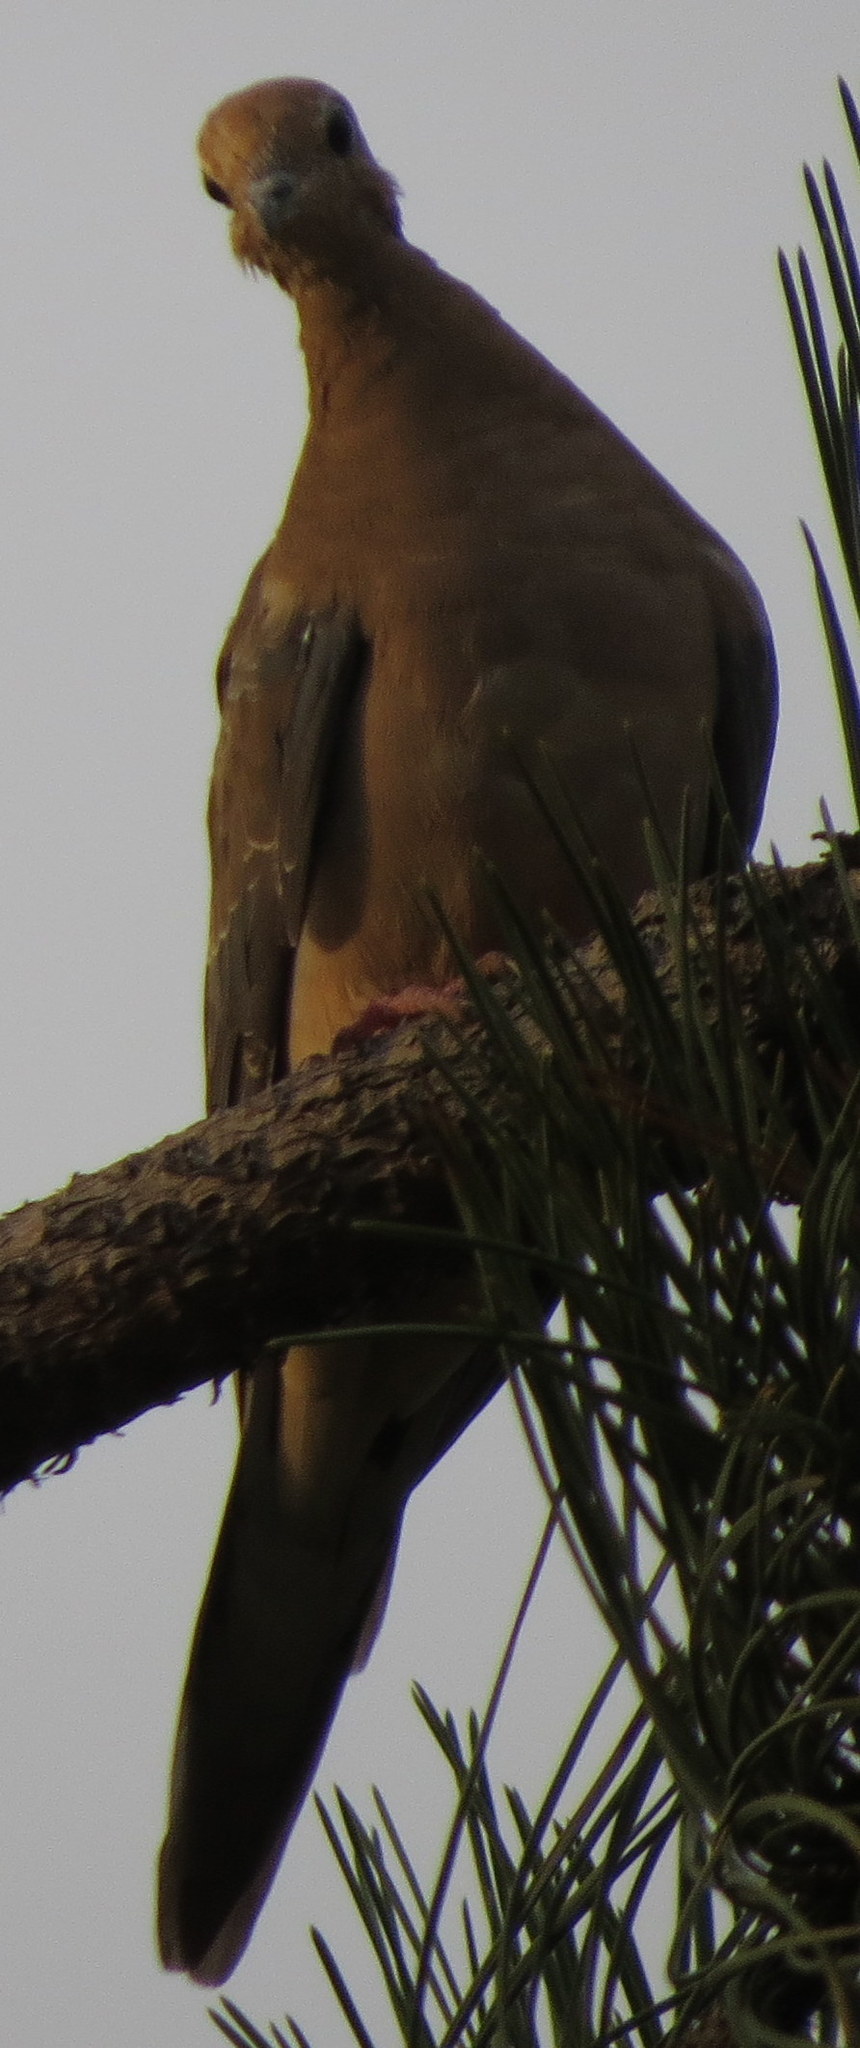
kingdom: Animalia
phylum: Chordata
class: Aves
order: Columbiformes
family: Columbidae
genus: Zenaida
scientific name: Zenaida macroura
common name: Mourning dove
